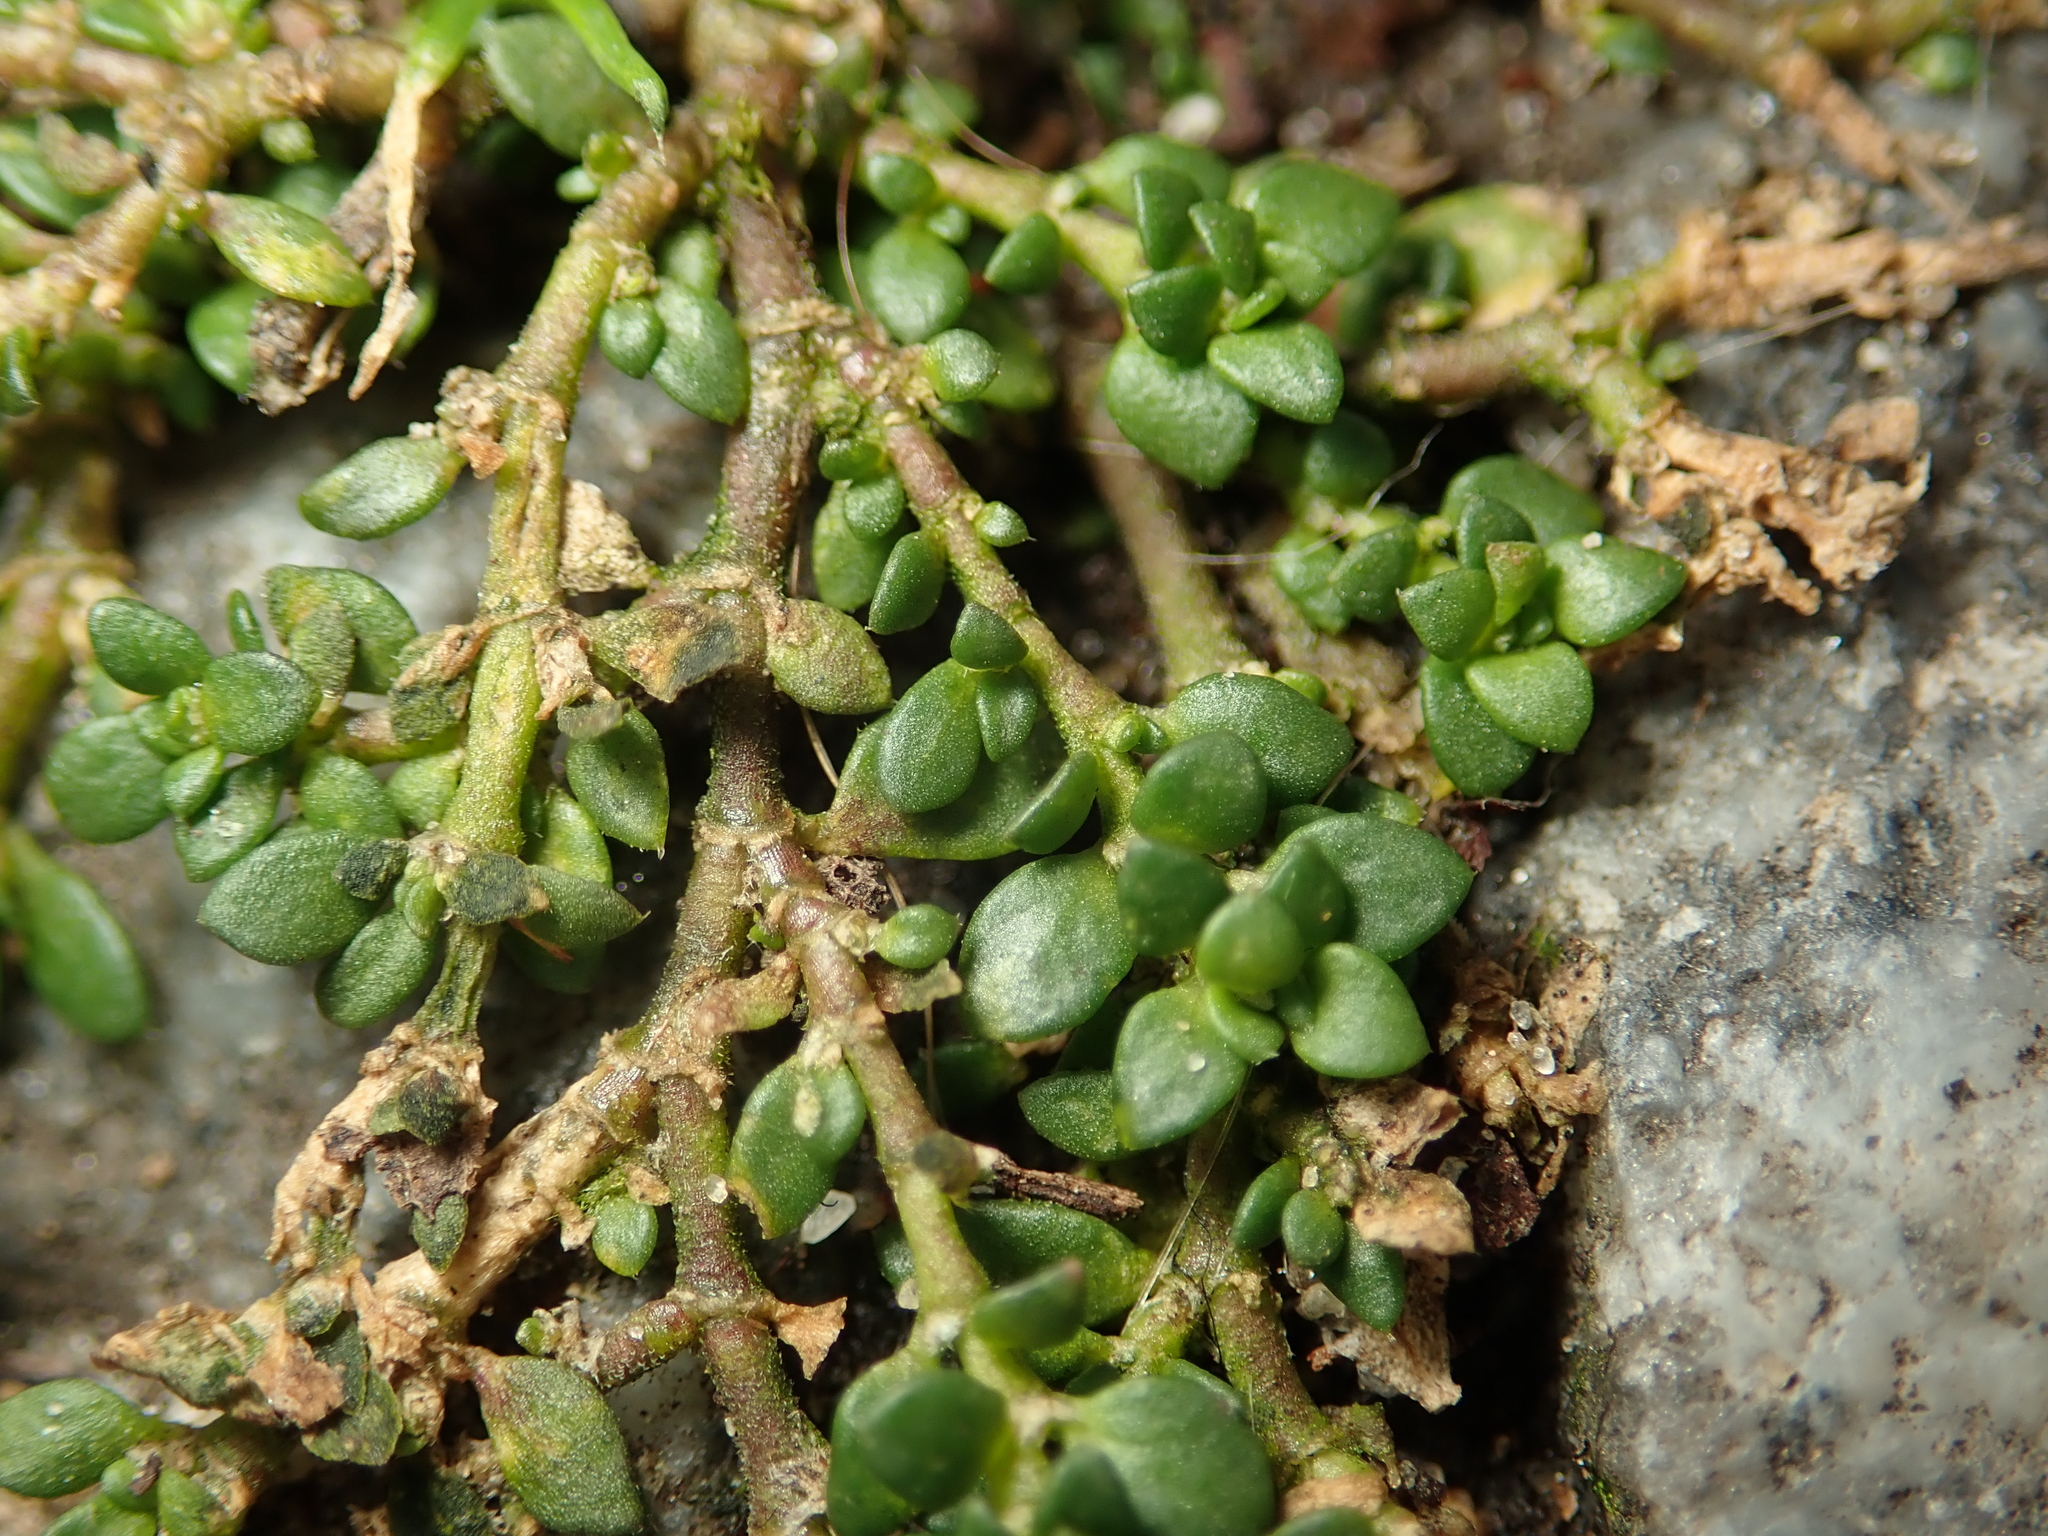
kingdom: Plantae
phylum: Tracheophyta
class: Magnoliopsida
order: Caryophyllales
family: Caryophyllaceae
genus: Herniaria
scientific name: Herniaria glabra
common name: Smooth rupturewort
